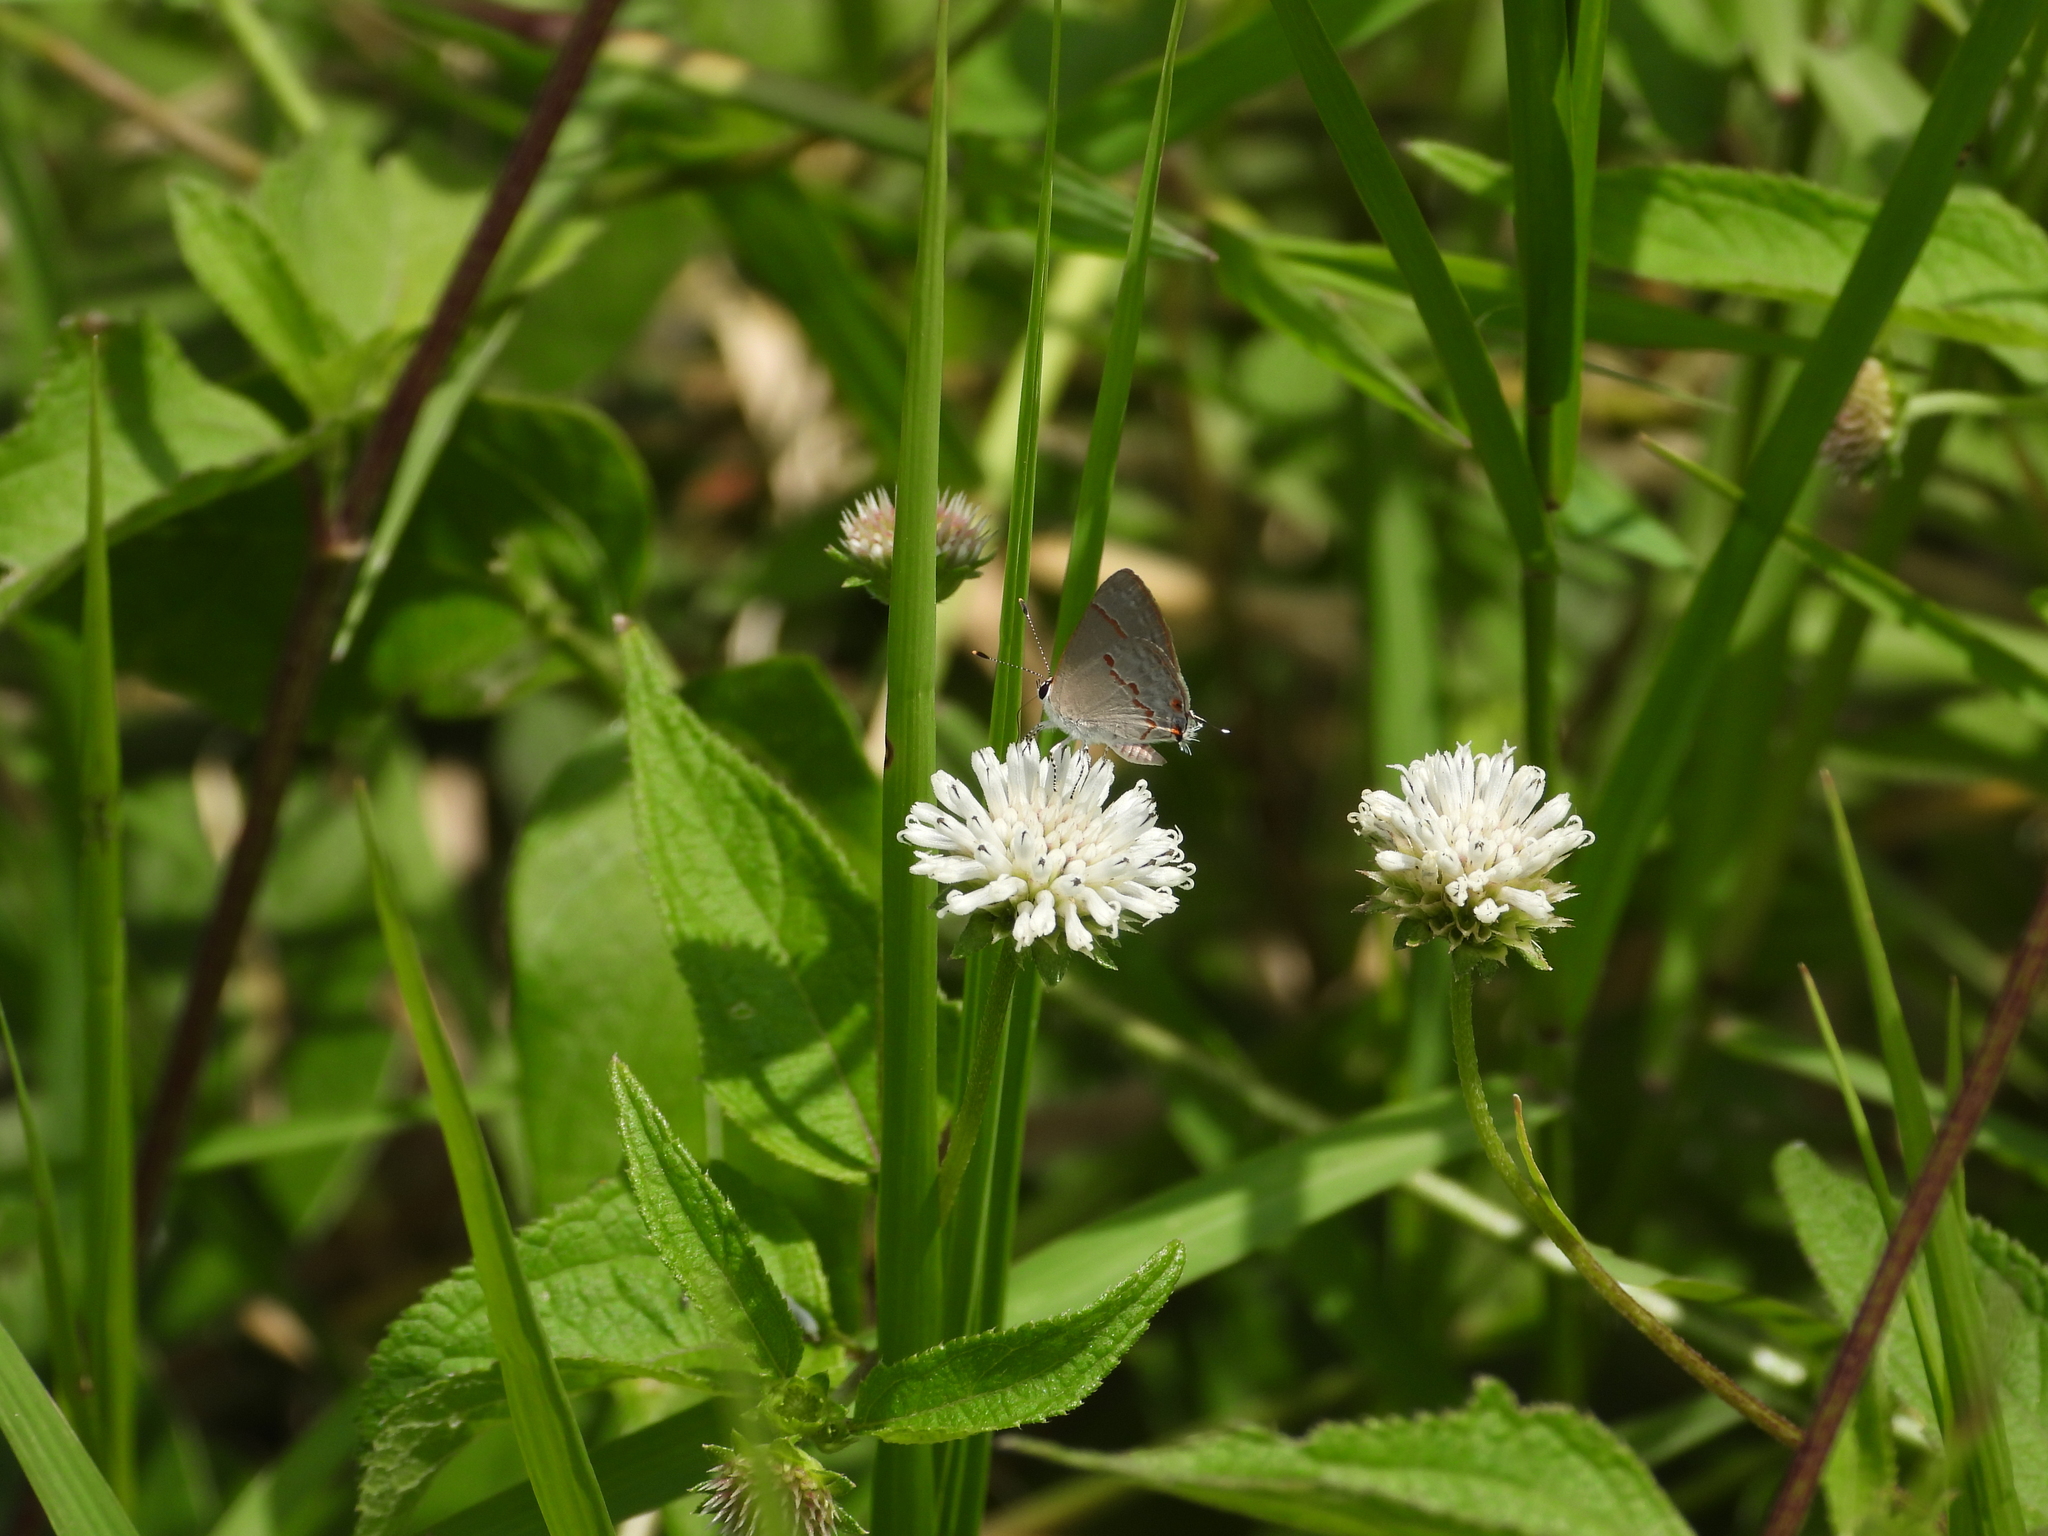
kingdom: Animalia
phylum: Arthropoda
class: Insecta
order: Lepidoptera
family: Lycaenidae
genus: Thecla
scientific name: Thecla azia
